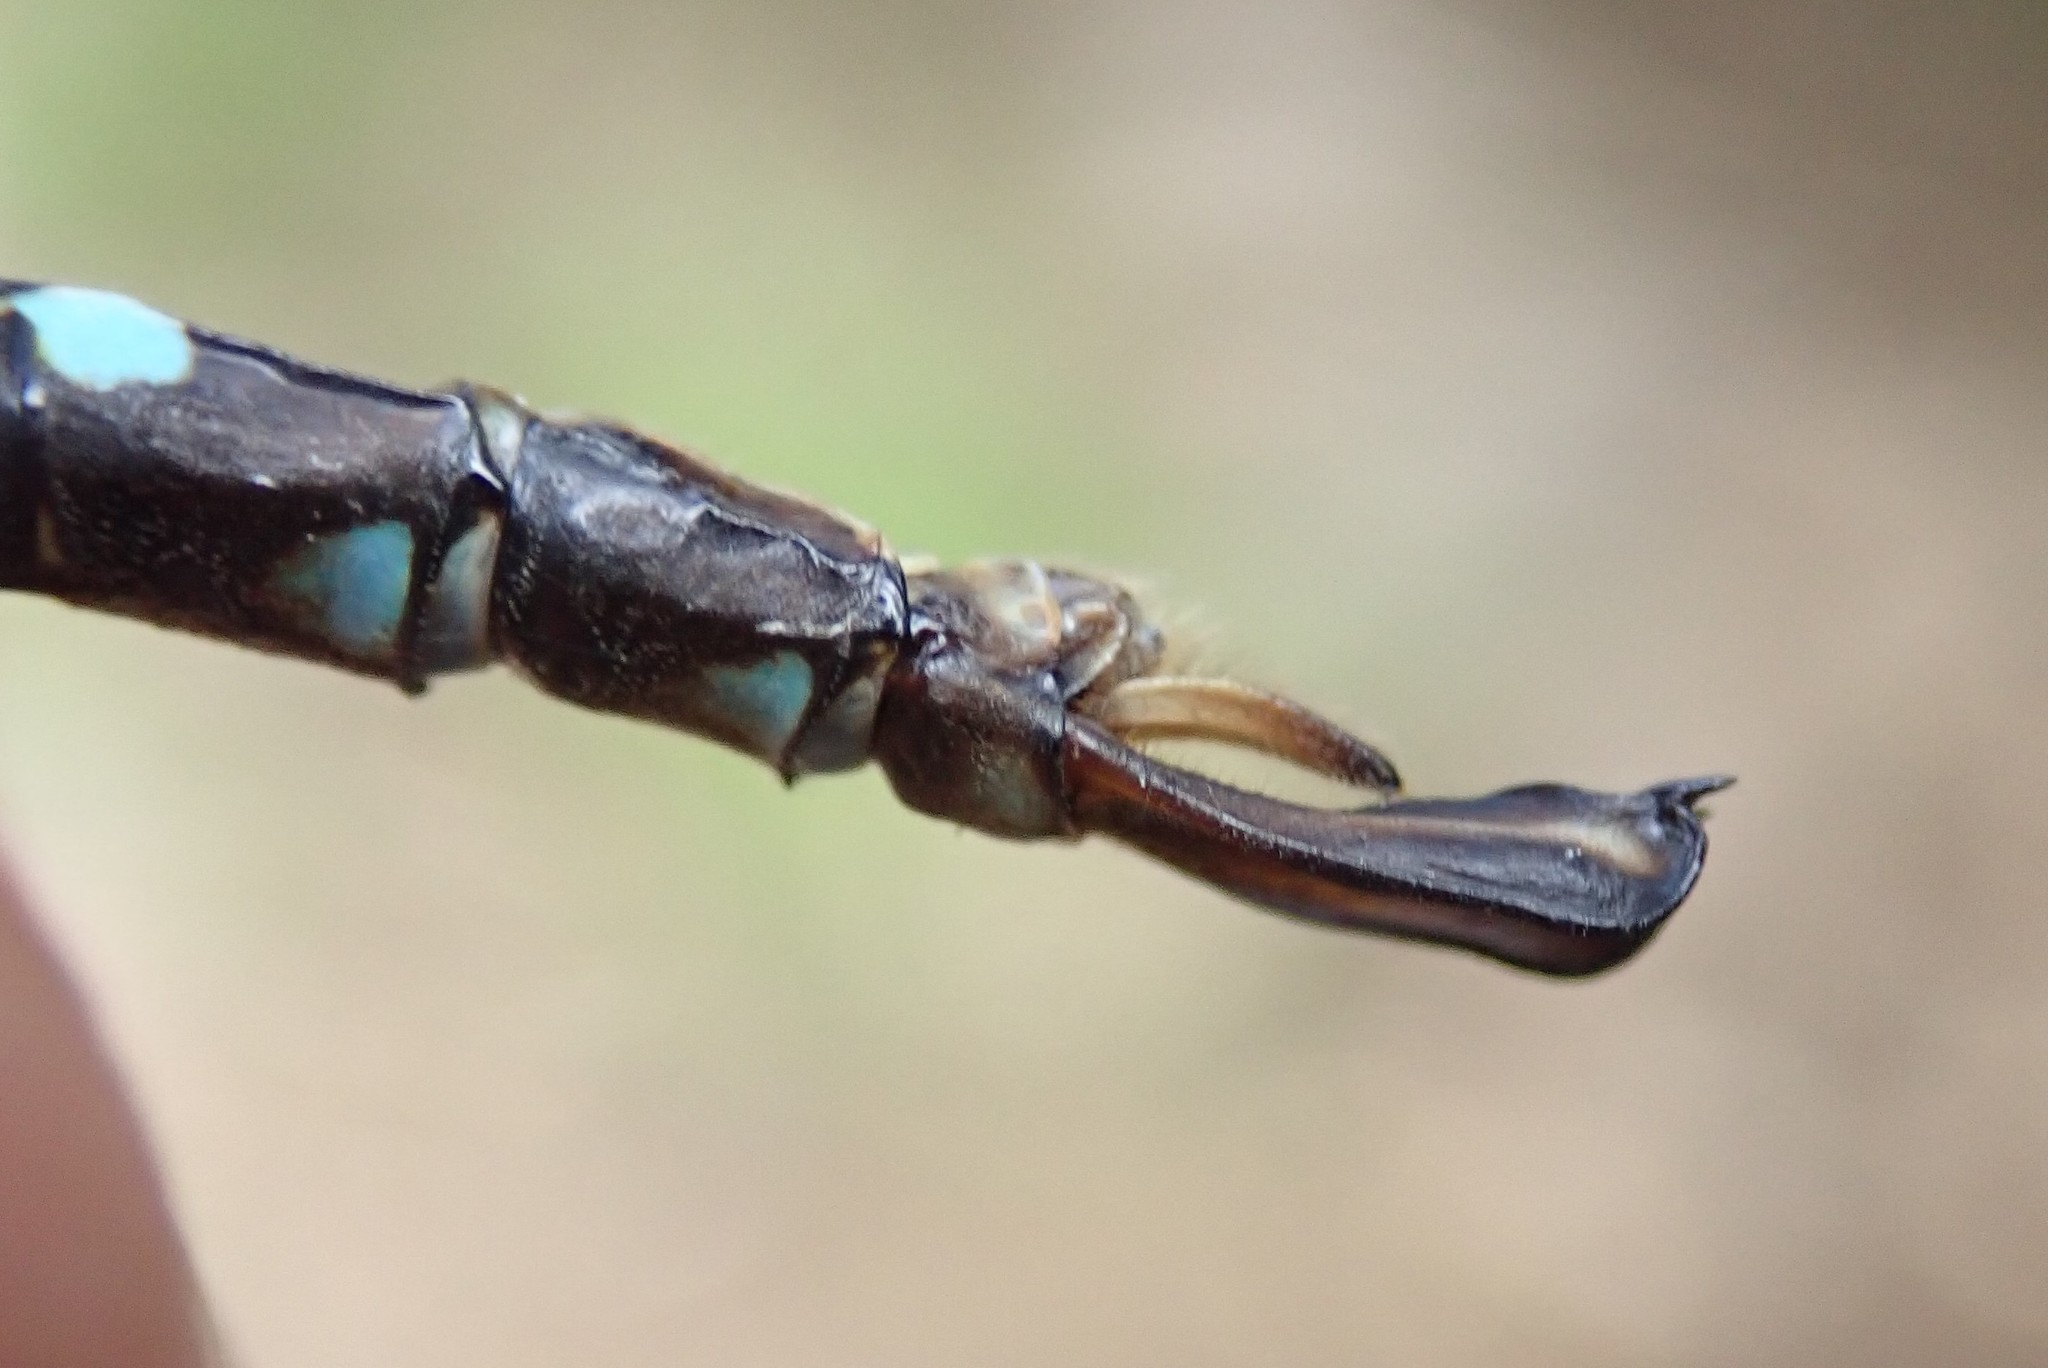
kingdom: Animalia
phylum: Arthropoda
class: Insecta
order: Odonata
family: Aeshnidae
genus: Aeshna
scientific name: Aeshna umbrosa
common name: Shadow darner
